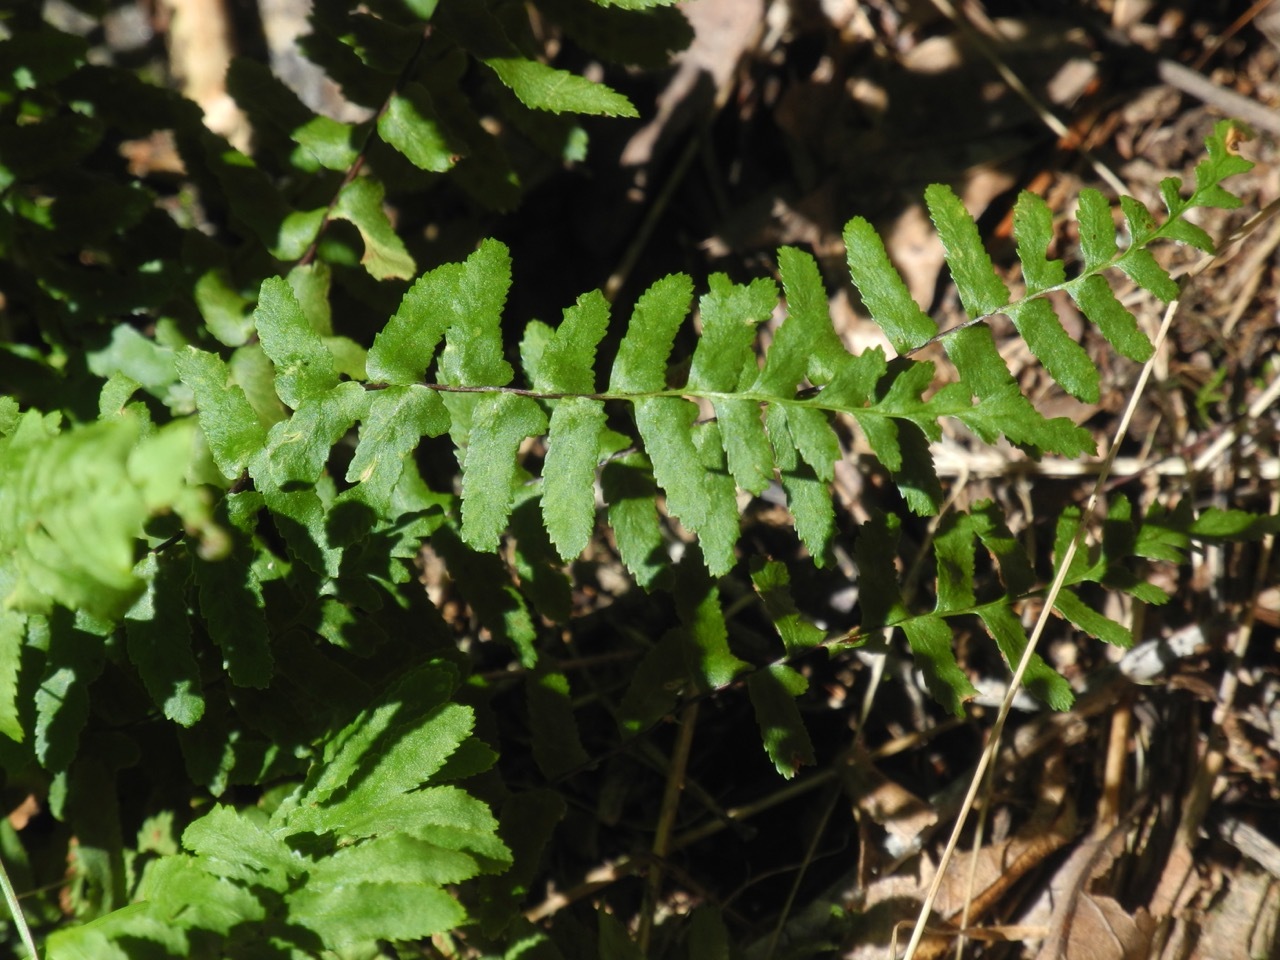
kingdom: Plantae
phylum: Tracheophyta
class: Polypodiopsida
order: Polypodiales
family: Aspleniaceae
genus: Asplenium
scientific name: Asplenium platyneuron
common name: Ebony spleenwort
